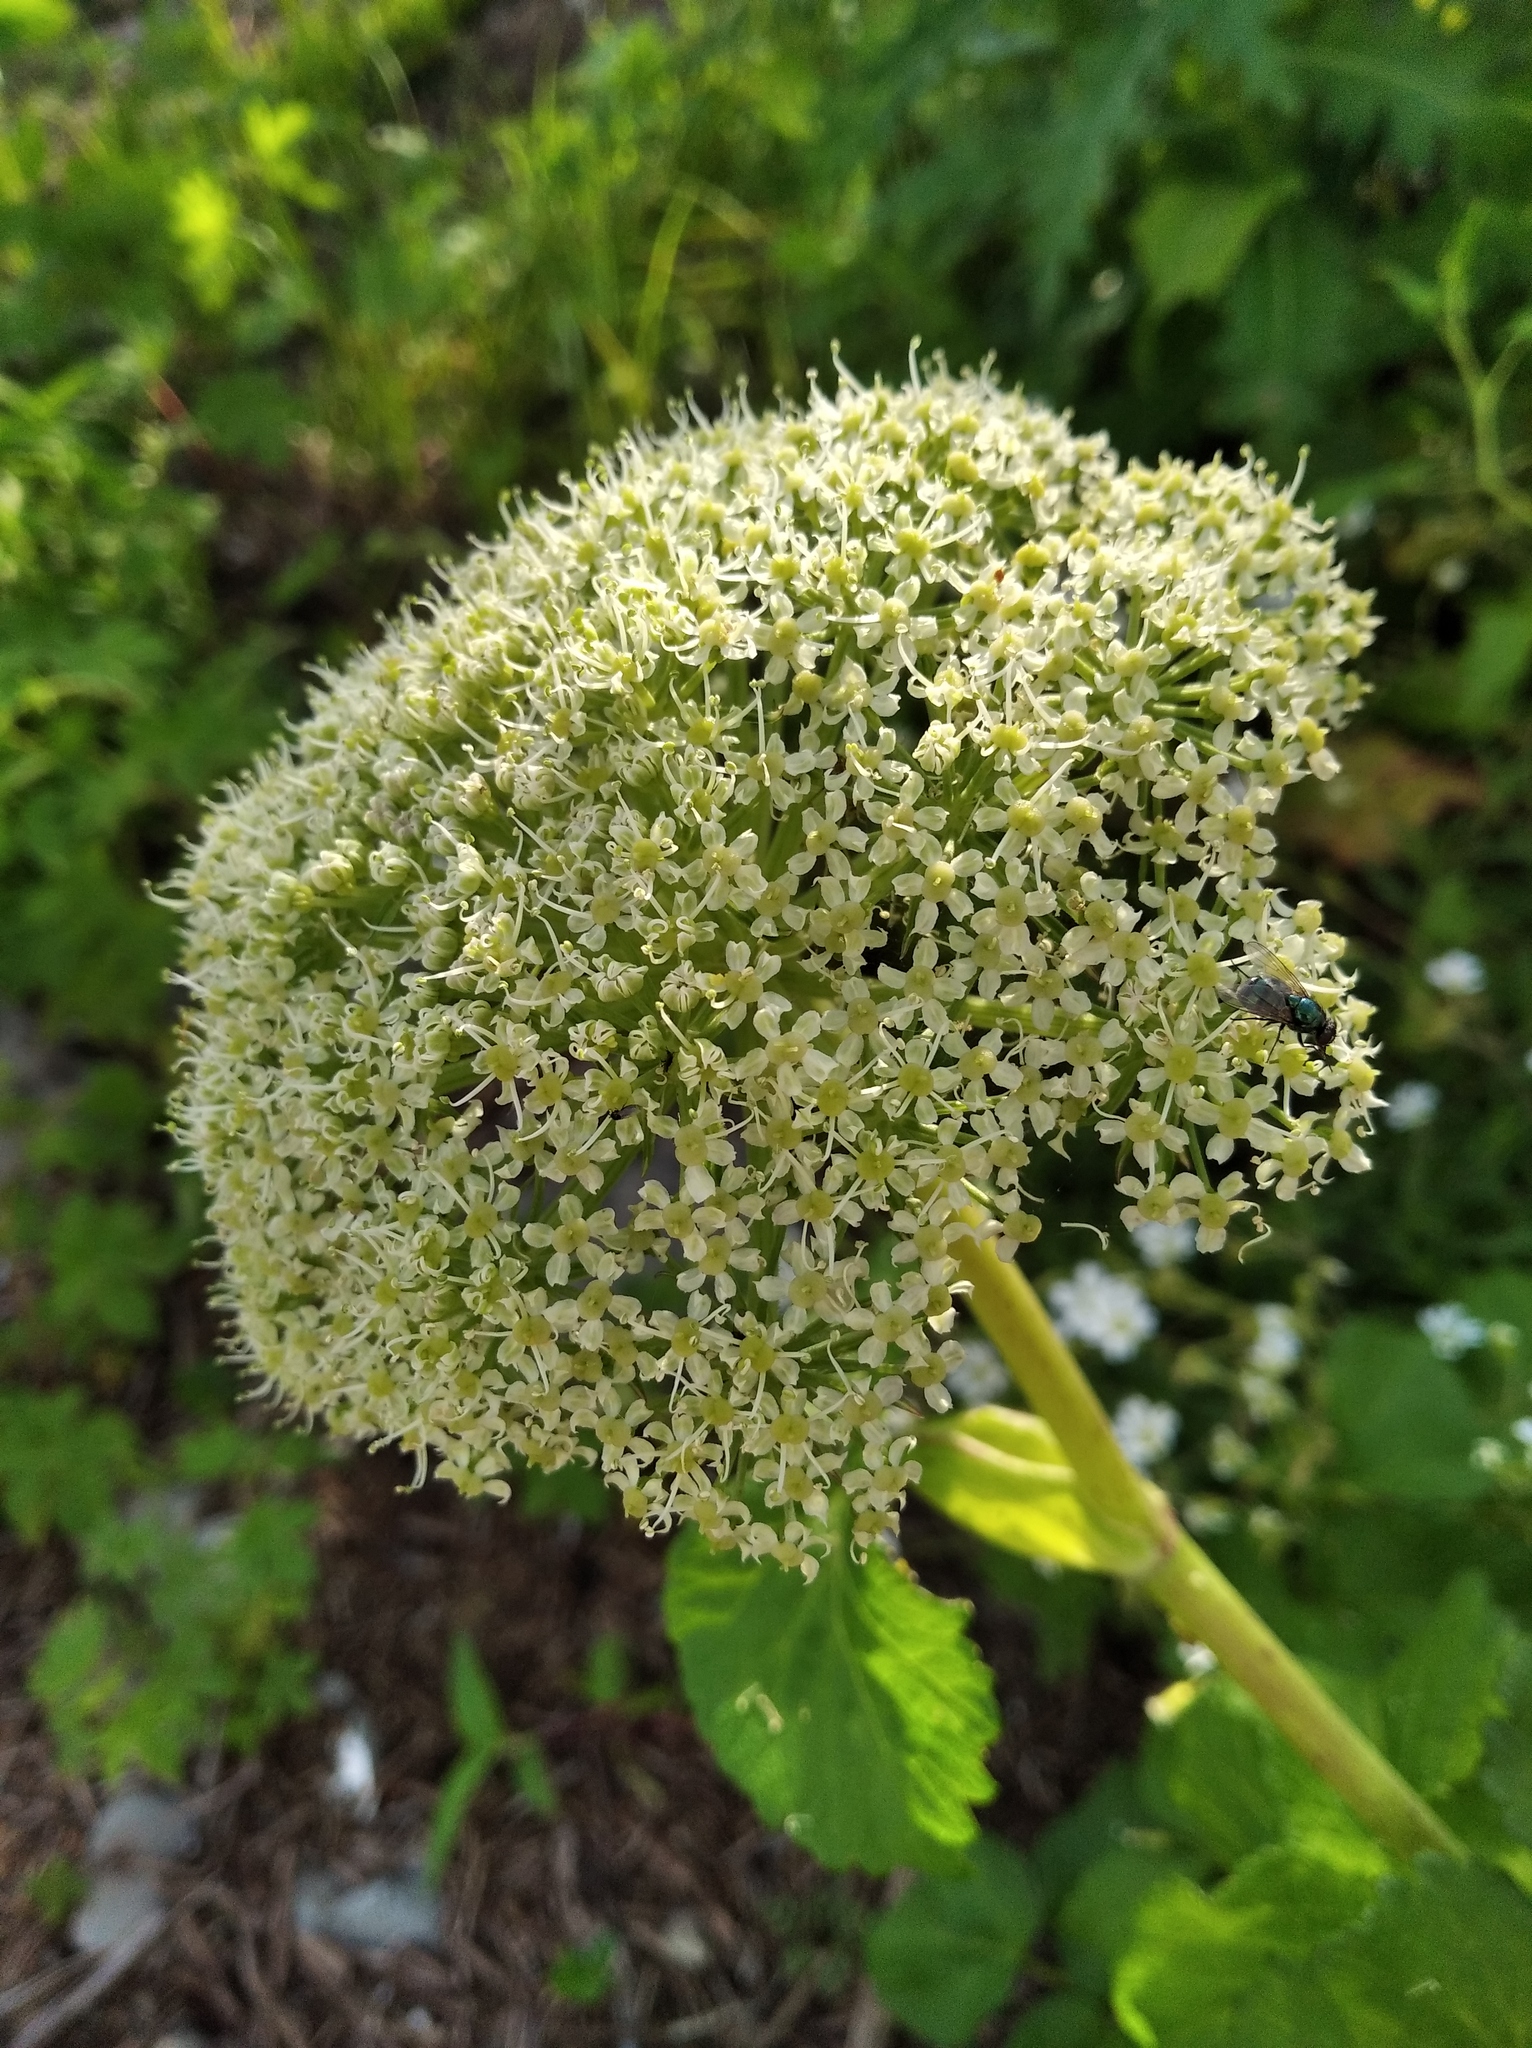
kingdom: Plantae
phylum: Tracheophyta
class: Magnoliopsida
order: Apiales
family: Apiaceae
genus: Angelica
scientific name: Angelica gmelinii
